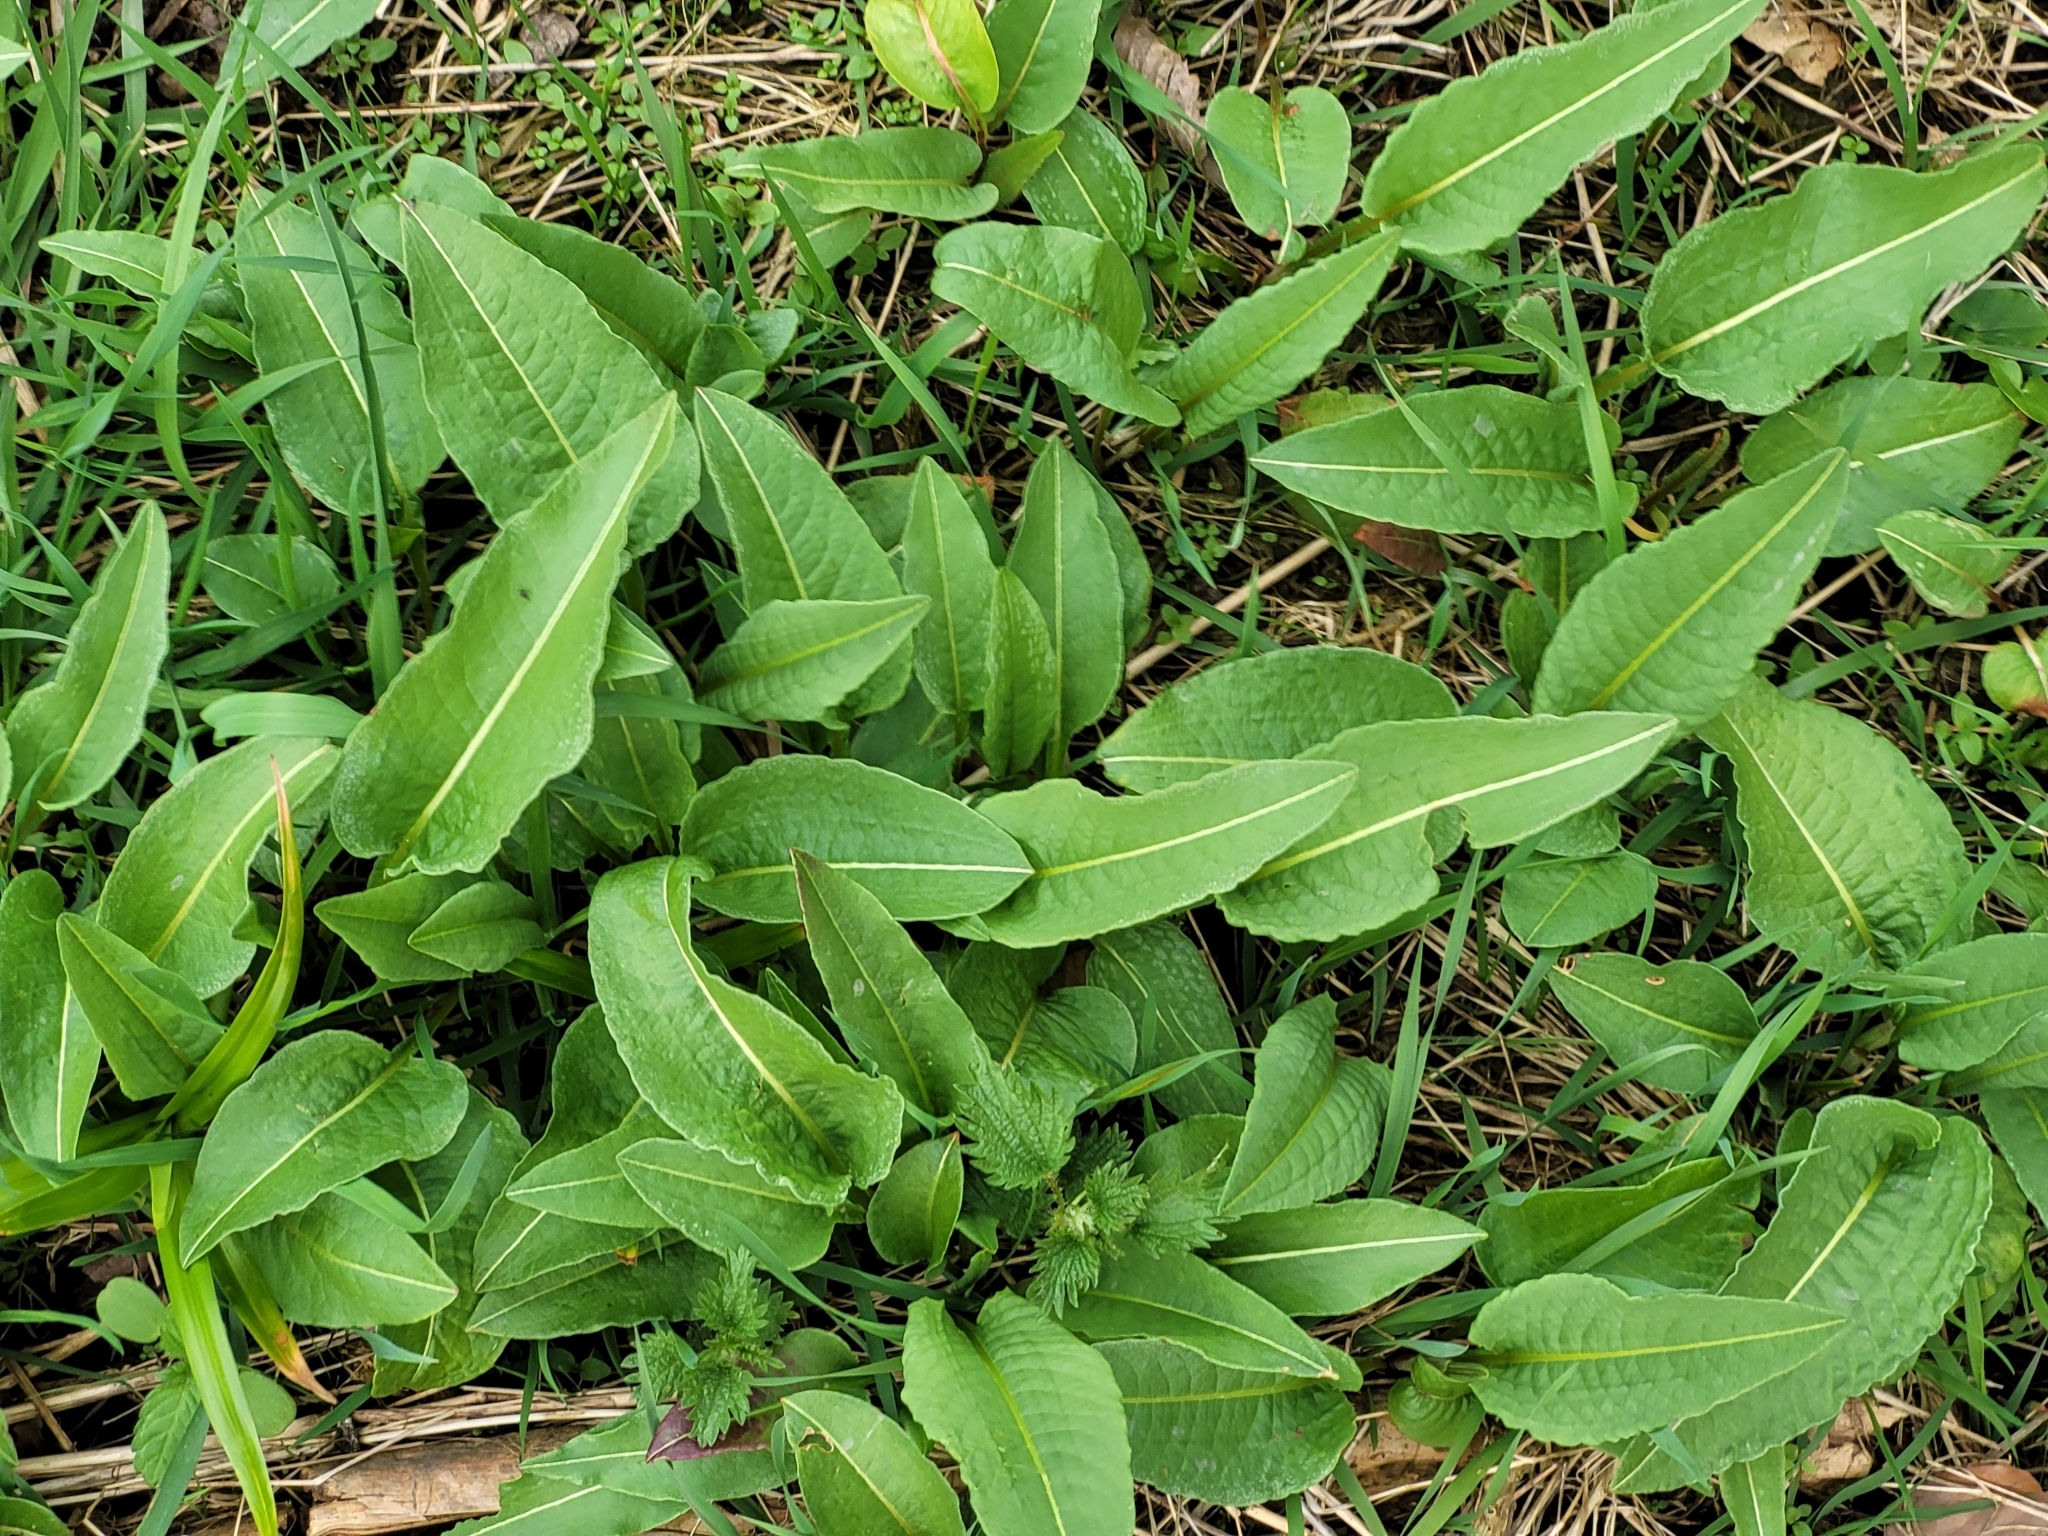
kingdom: Plantae
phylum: Tracheophyta
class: Magnoliopsida
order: Caryophyllales
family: Polygonaceae
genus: Bistorta
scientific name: Bistorta officinalis
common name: Common bistort
